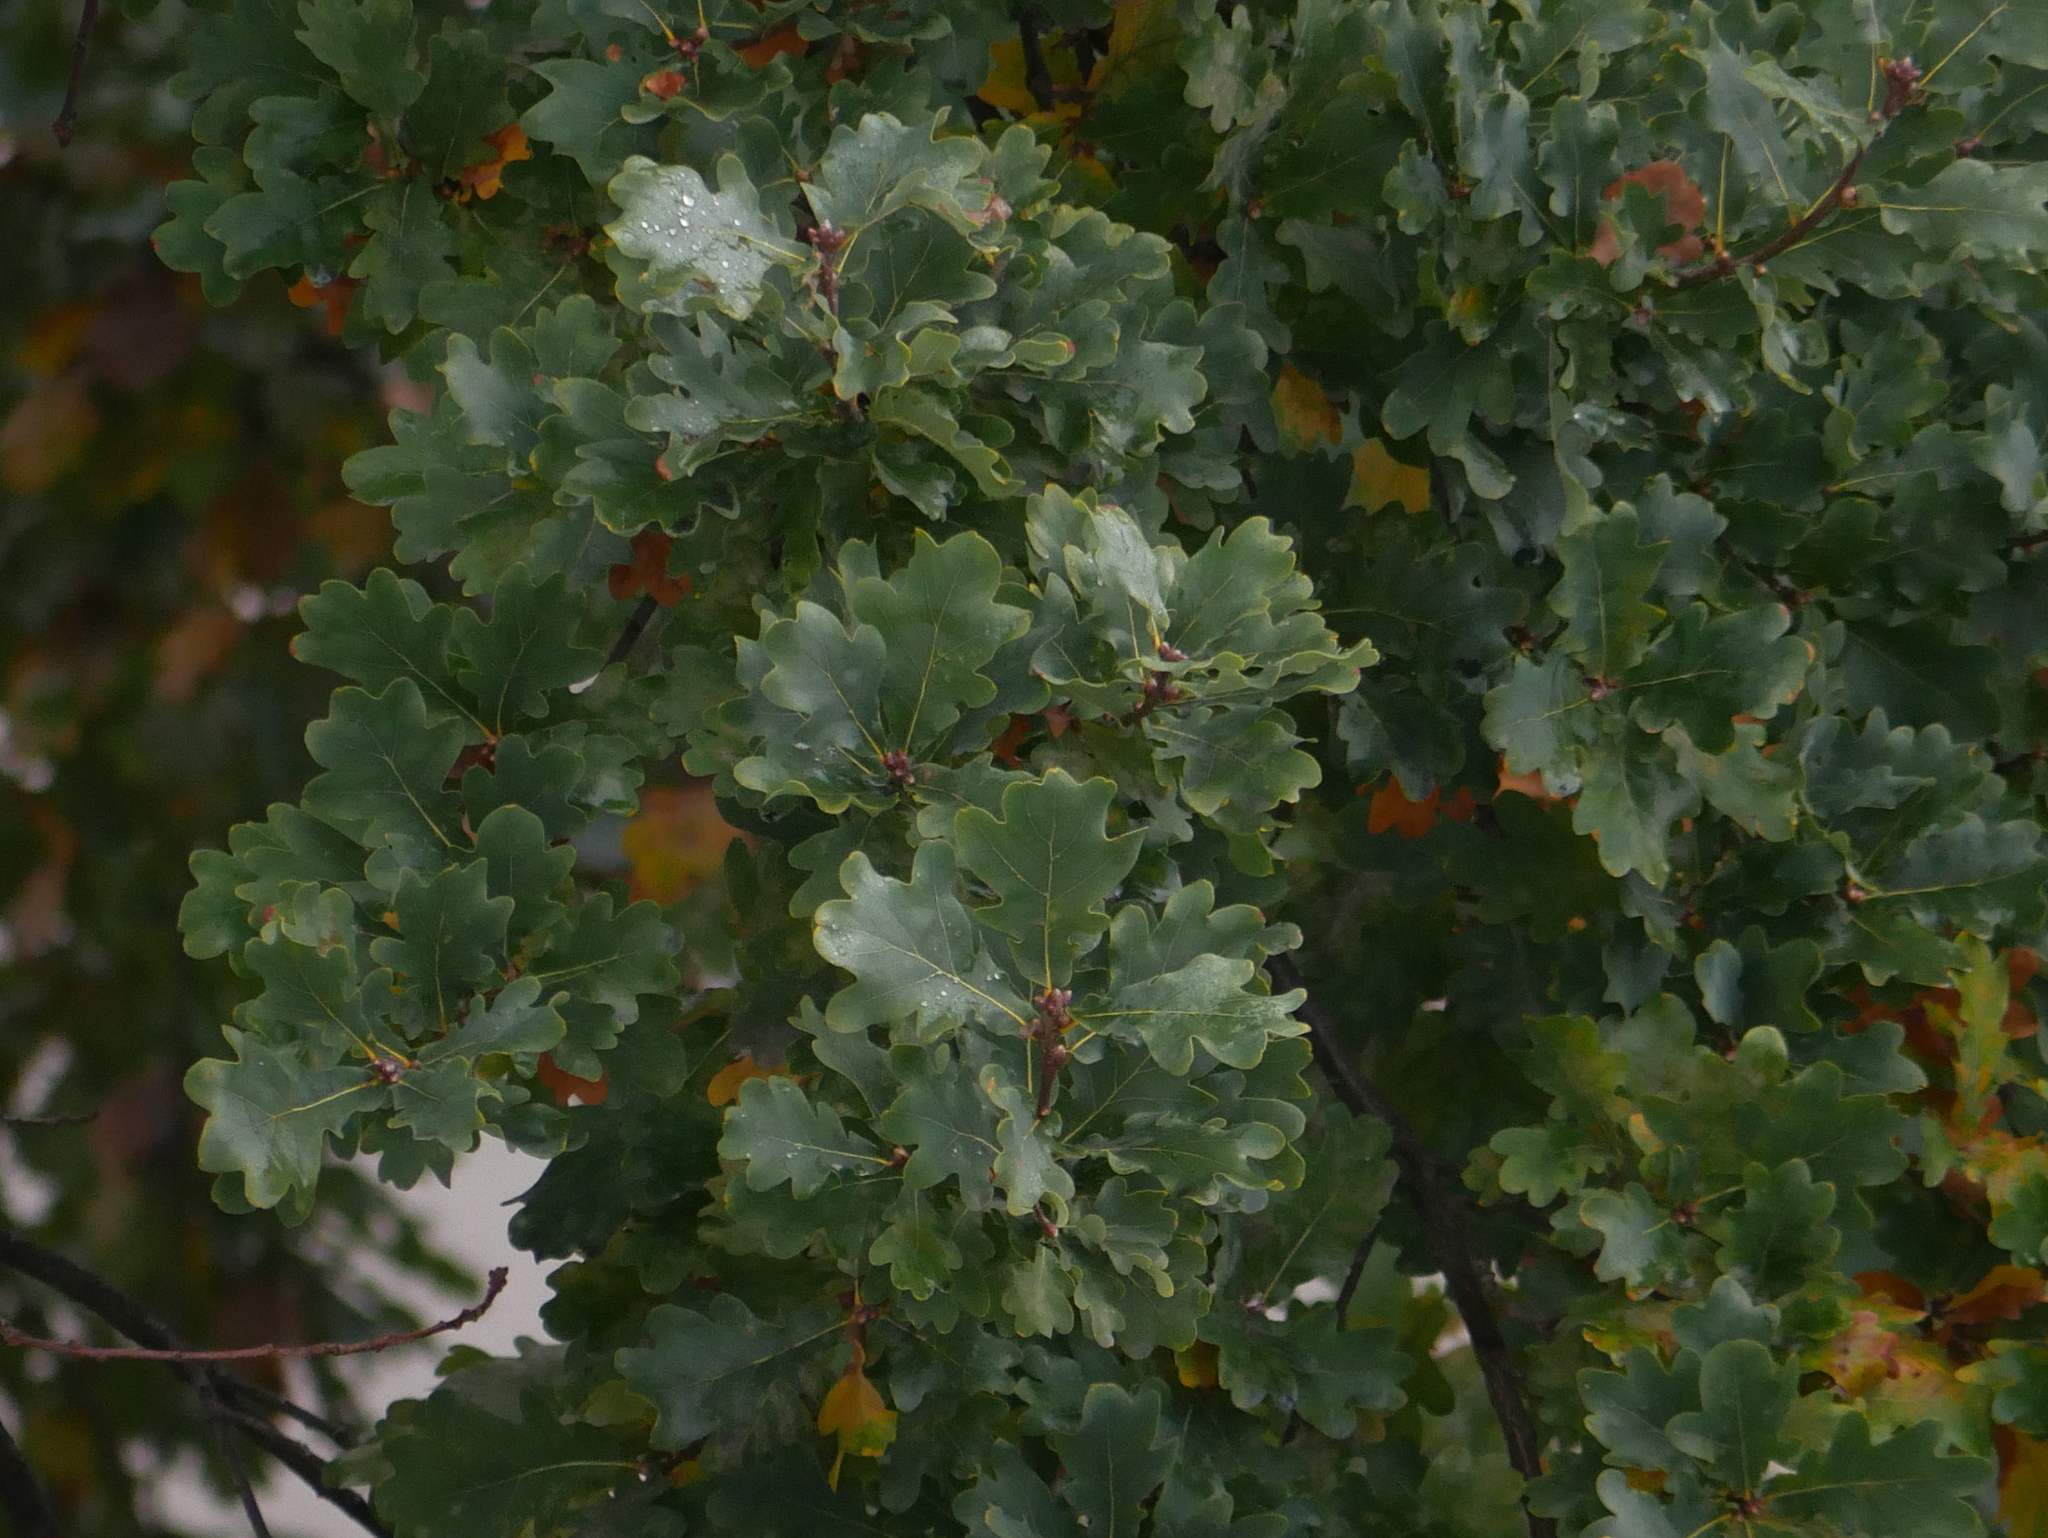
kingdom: Plantae
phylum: Tracheophyta
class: Magnoliopsida
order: Fagales
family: Fagaceae
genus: Quercus
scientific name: Quercus robur
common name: Pedunculate oak
